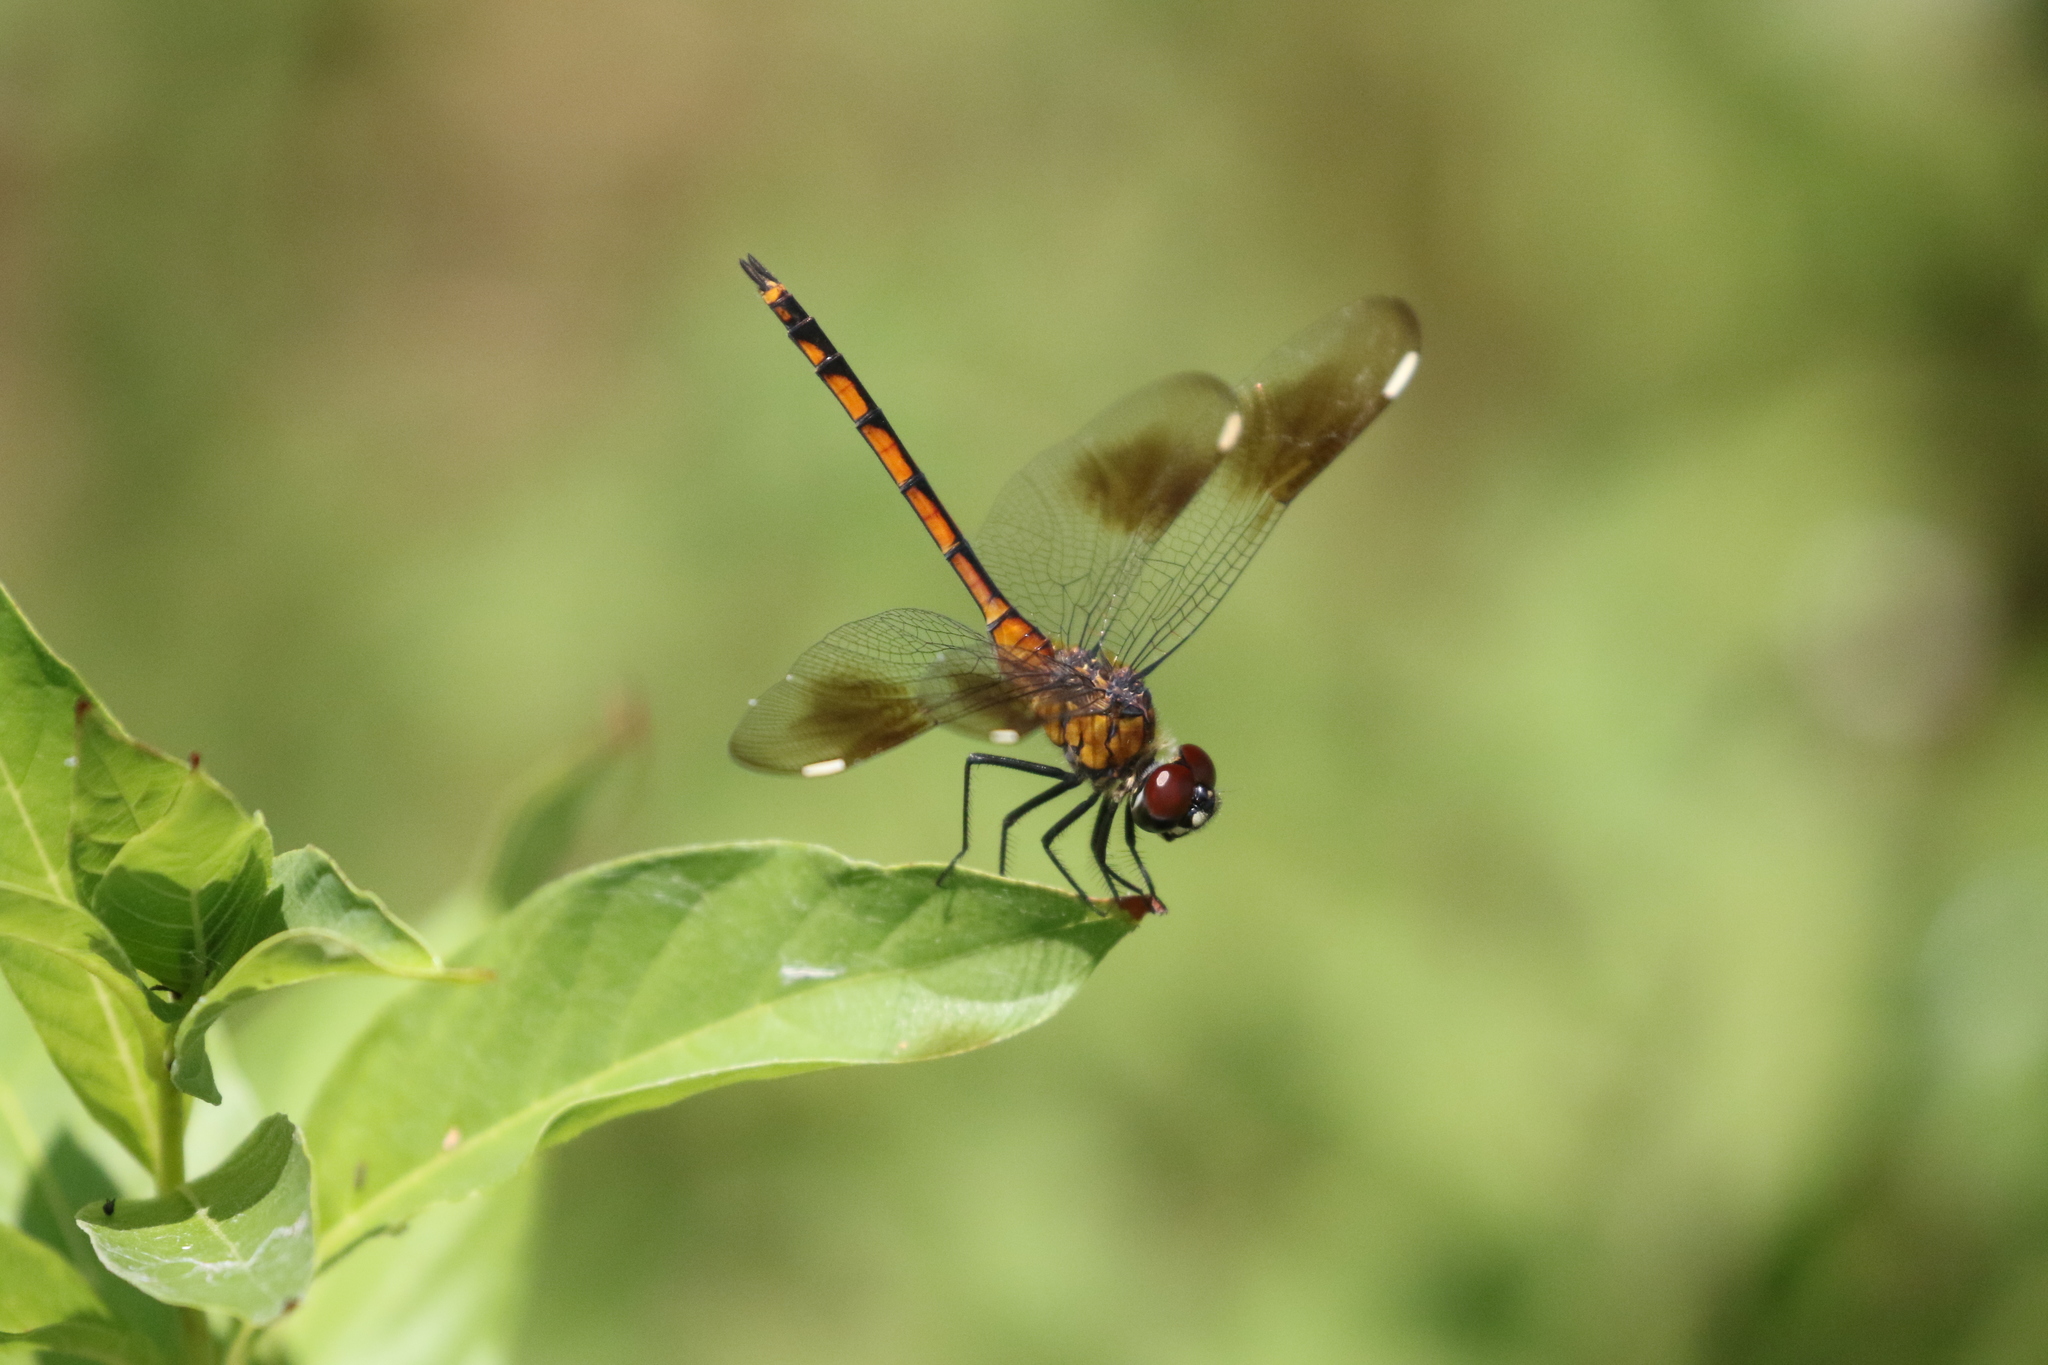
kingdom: Animalia
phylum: Arthropoda
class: Insecta
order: Odonata
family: Libellulidae
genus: Brachymesia
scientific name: Brachymesia gravida
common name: Four-spotted pennant
